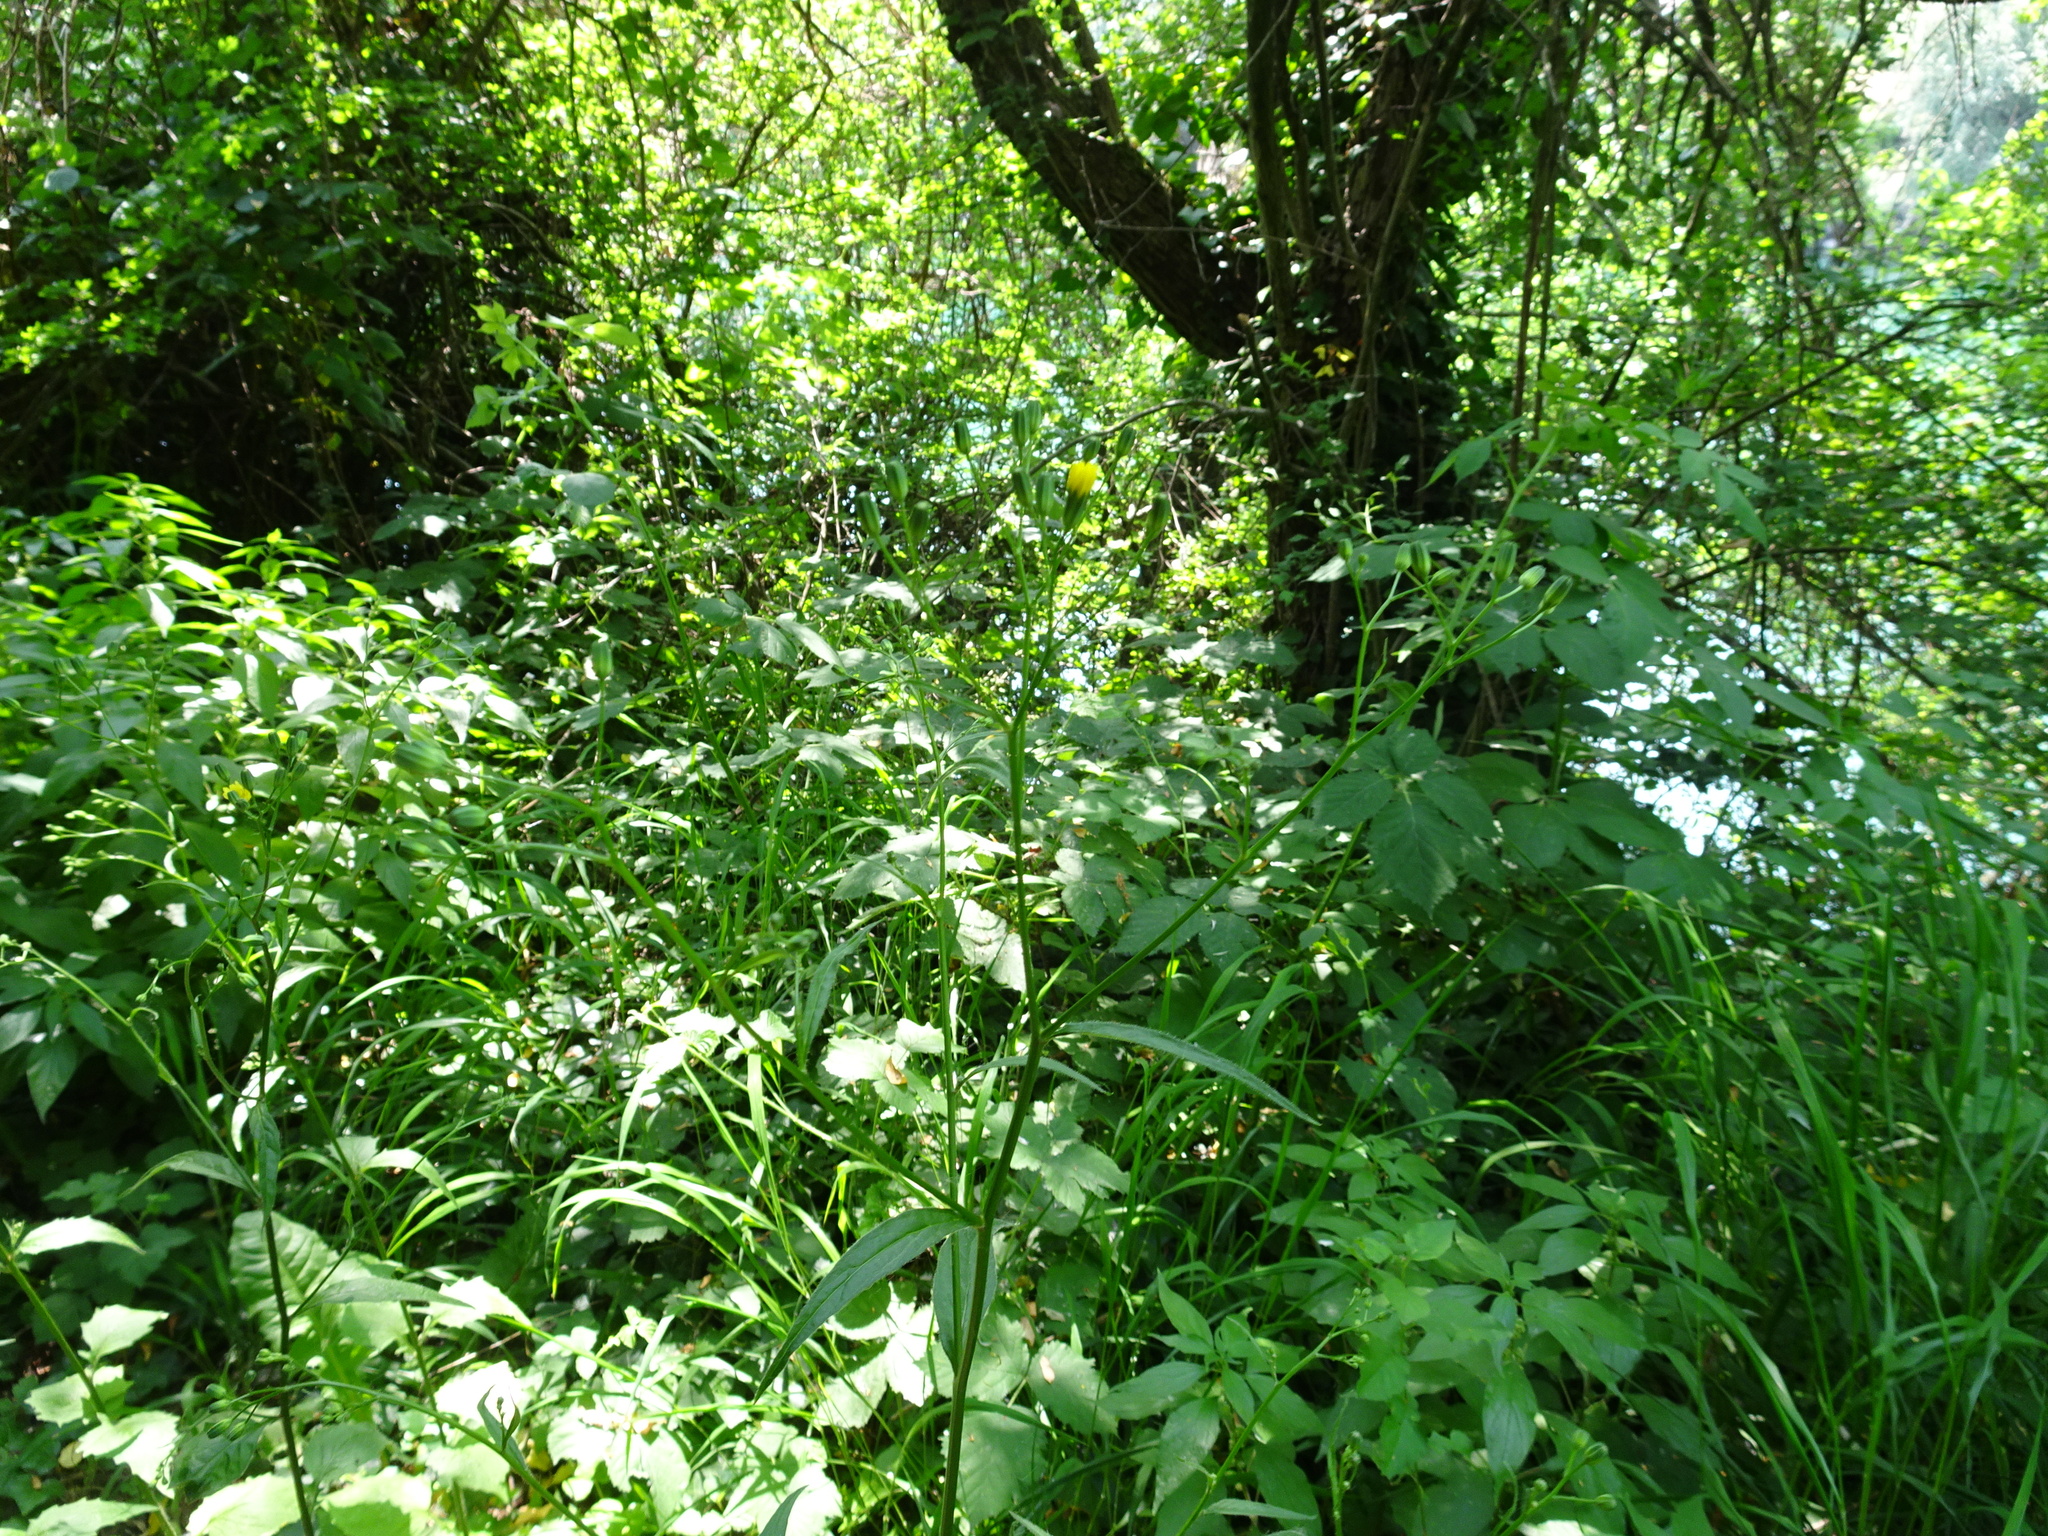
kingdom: Plantae
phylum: Tracheophyta
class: Magnoliopsida
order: Asterales
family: Asteraceae
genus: Lapsana
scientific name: Lapsana communis
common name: Nipplewort
